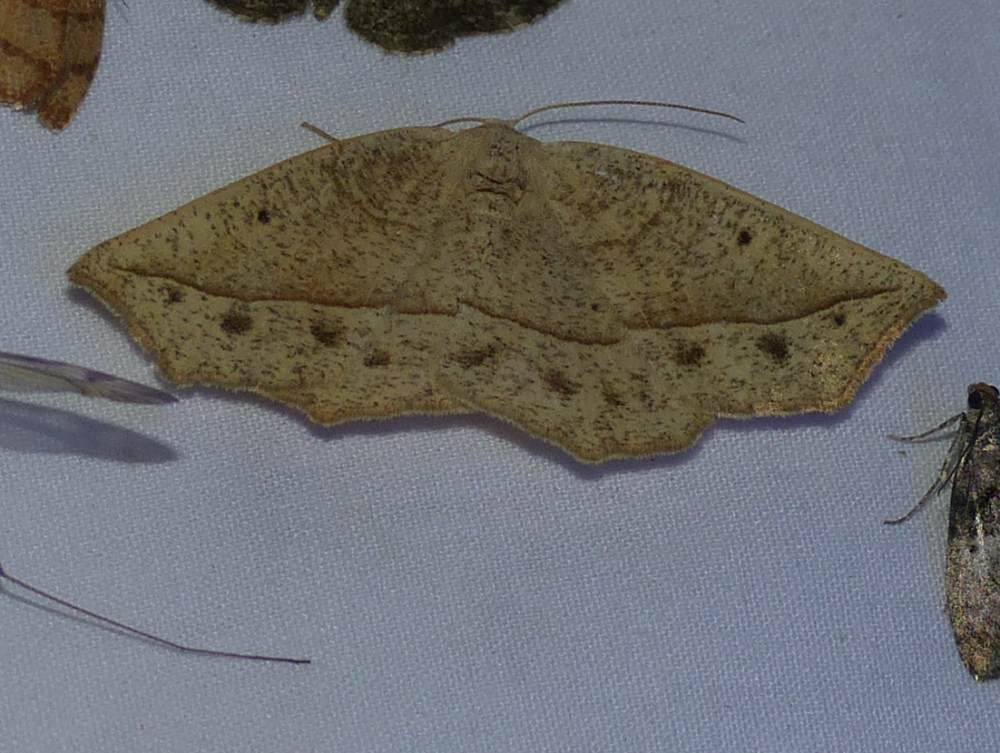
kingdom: Animalia
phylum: Arthropoda
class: Insecta
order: Lepidoptera
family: Geometridae
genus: Eusarca
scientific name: Eusarca confusaria
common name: Confused eusarca
